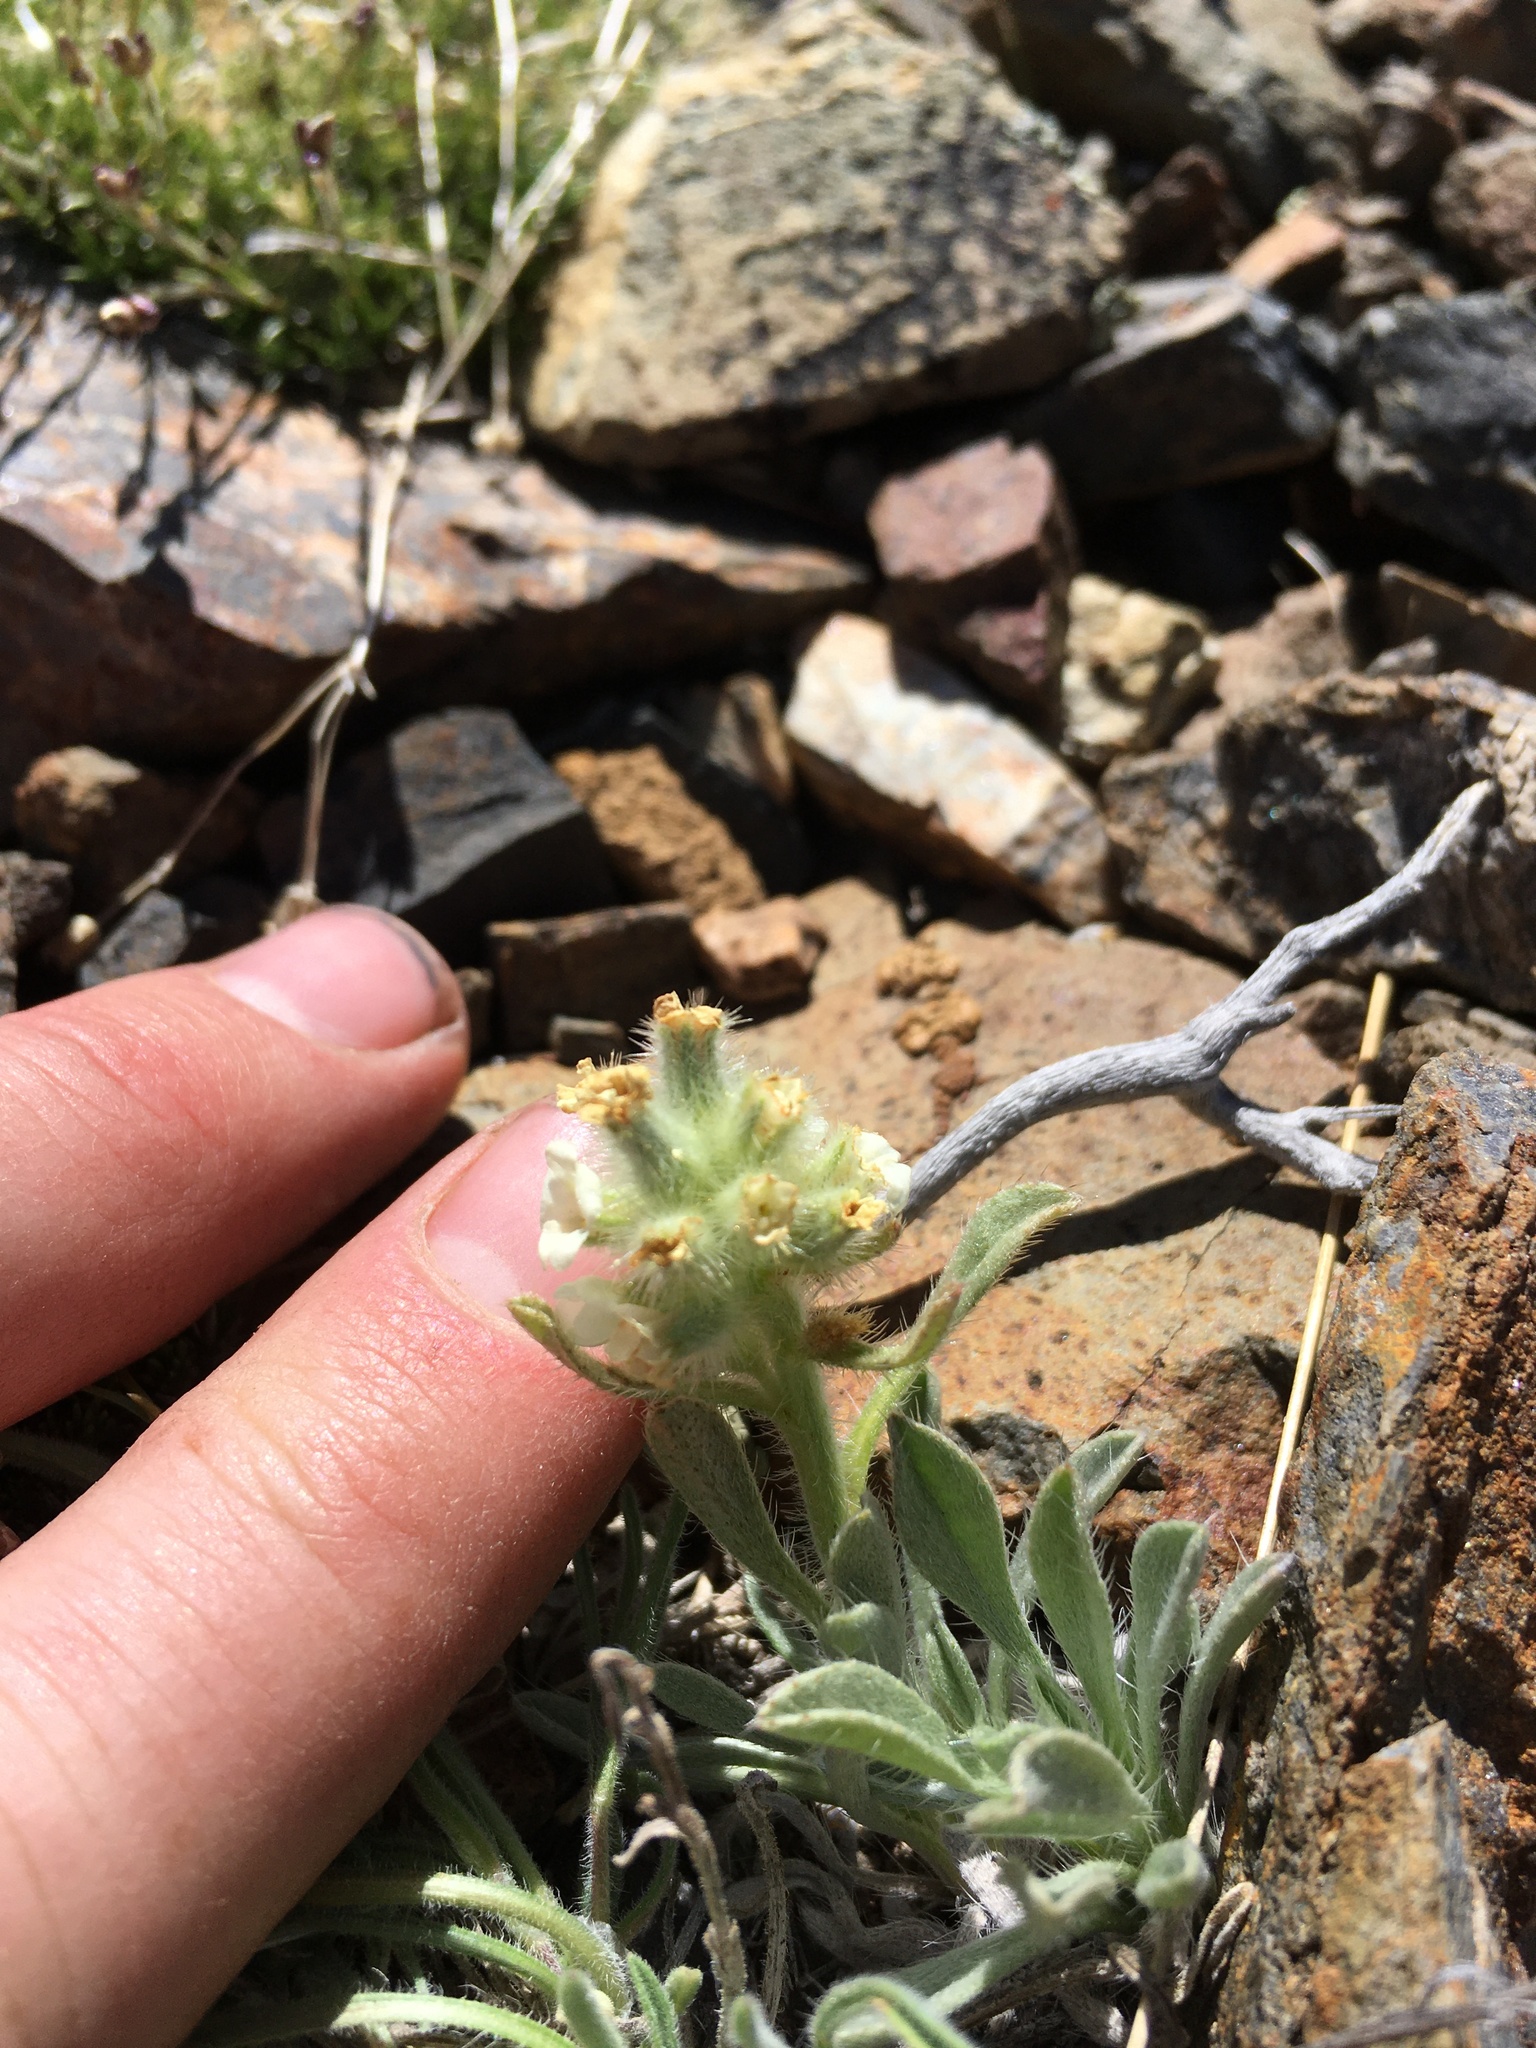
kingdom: Plantae
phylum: Tracheophyta
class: Magnoliopsida
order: Boraginales
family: Boraginaceae
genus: Oreocarya
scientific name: Oreocarya humilis
